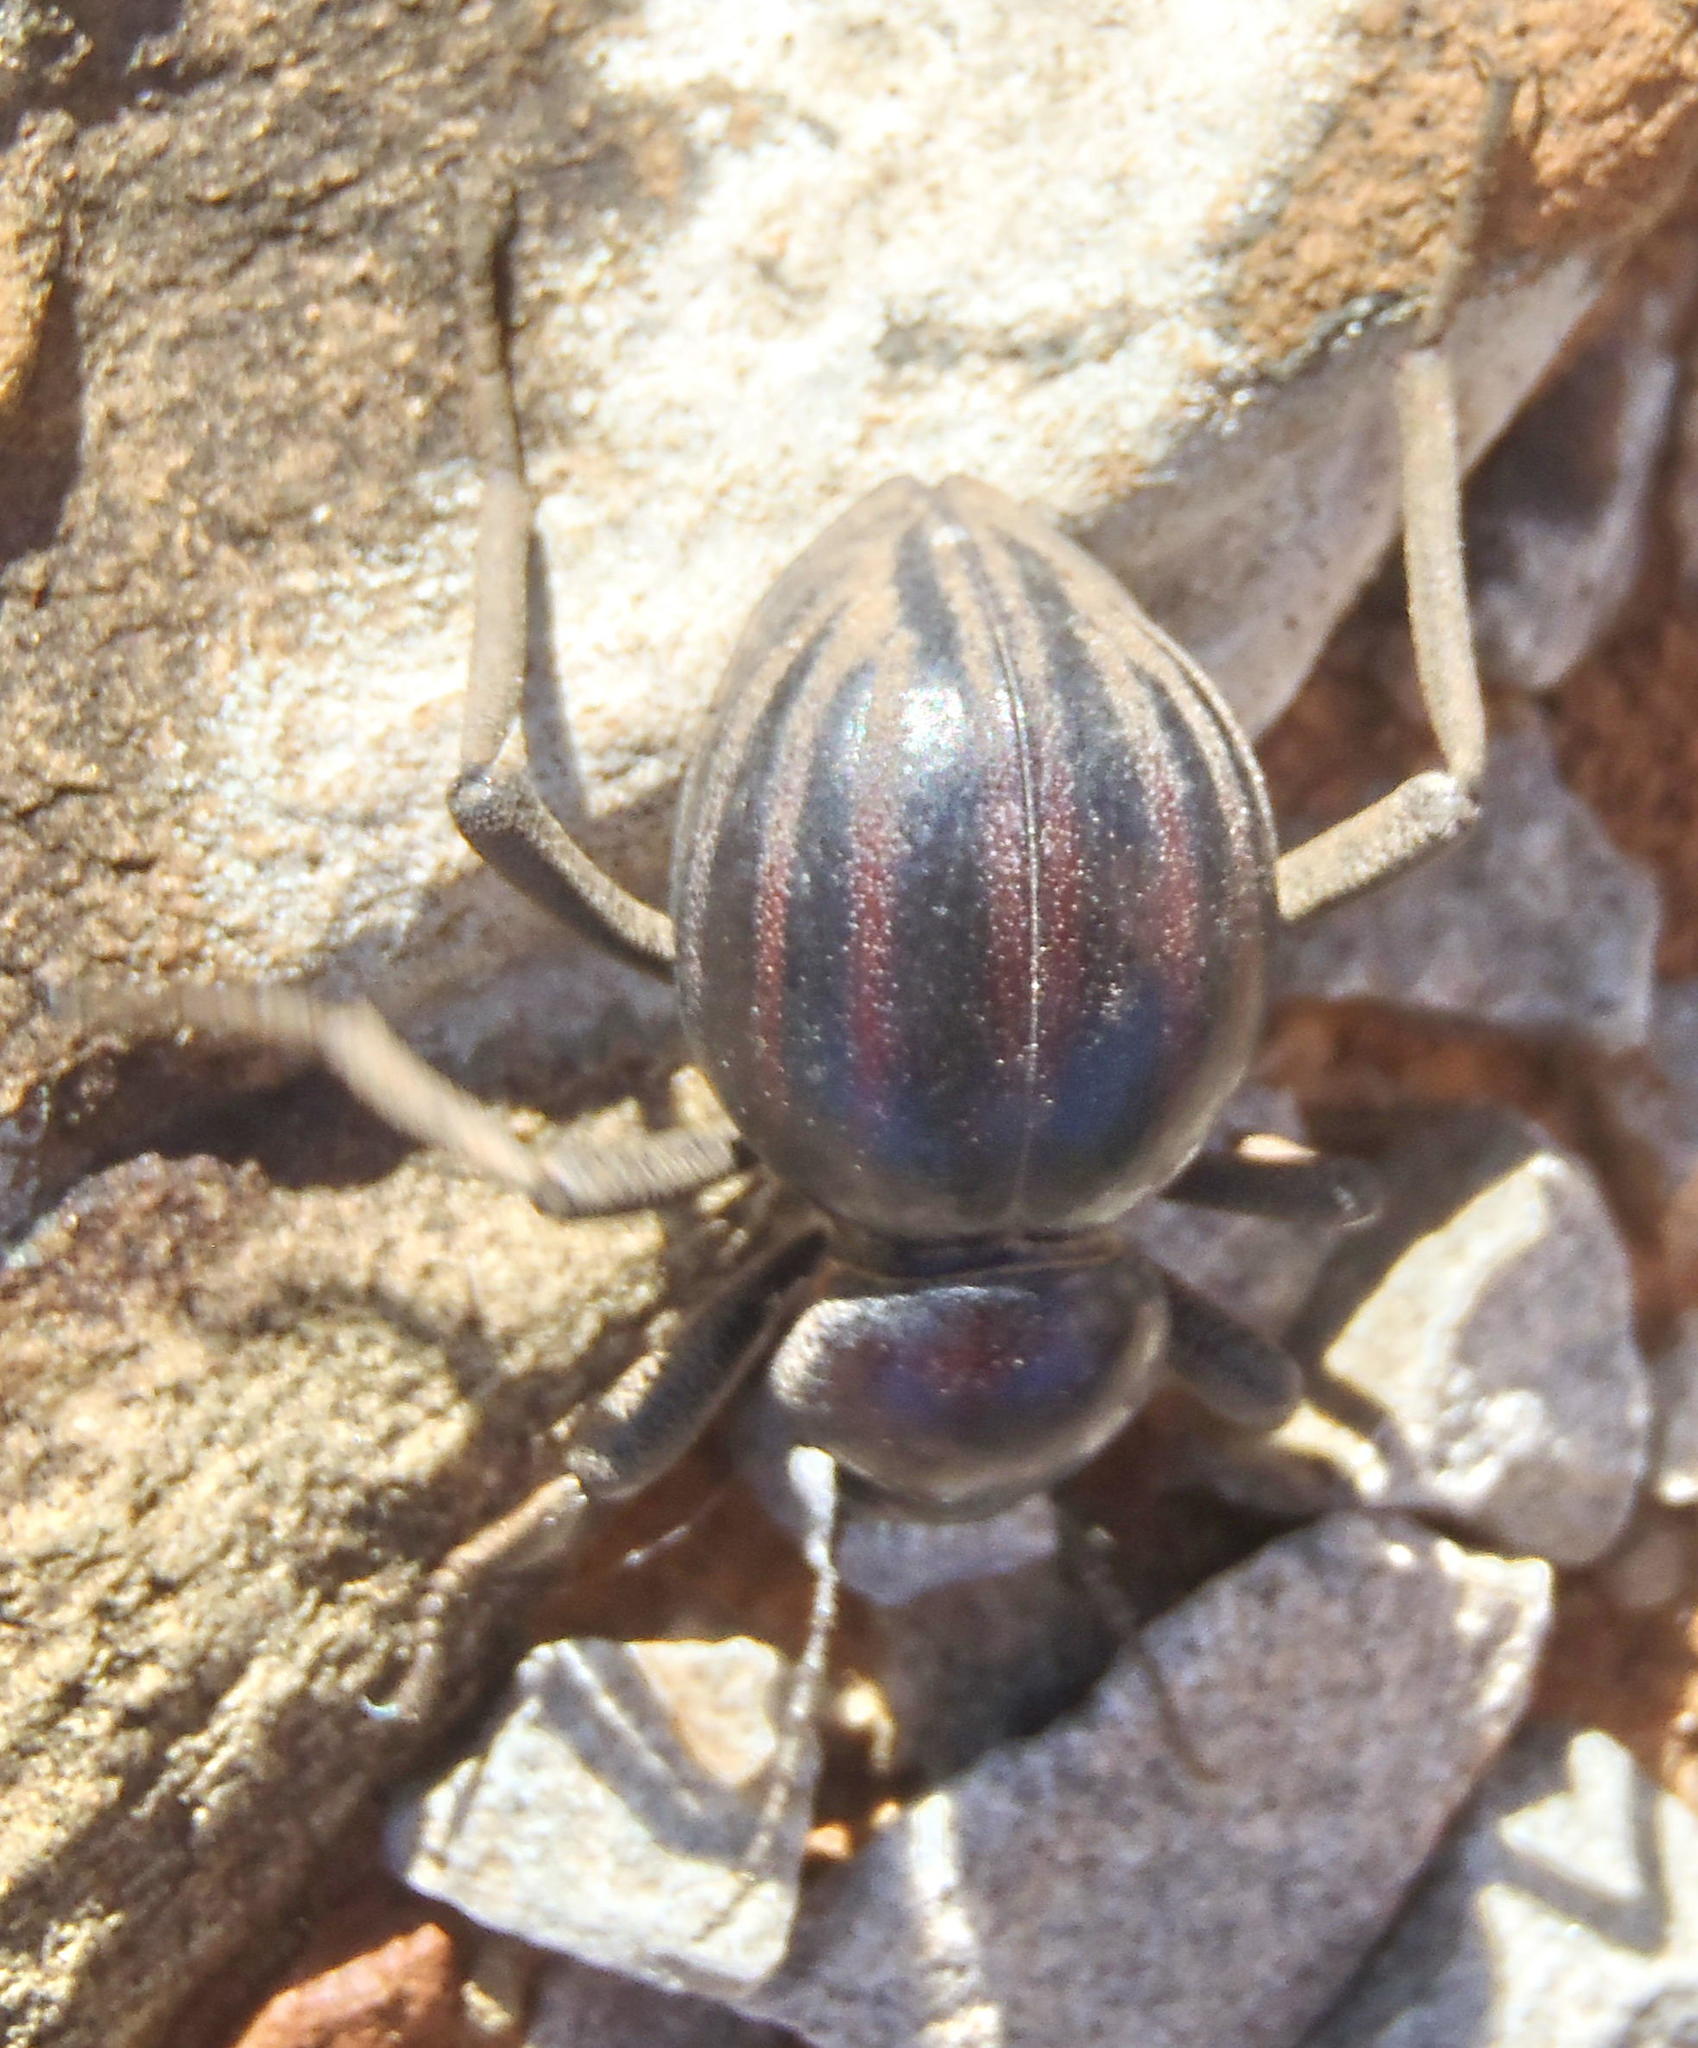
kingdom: Animalia
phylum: Arthropoda
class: Insecta
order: Coleoptera
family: Tenebrionidae
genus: Mariazofia
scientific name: Mariazofia
